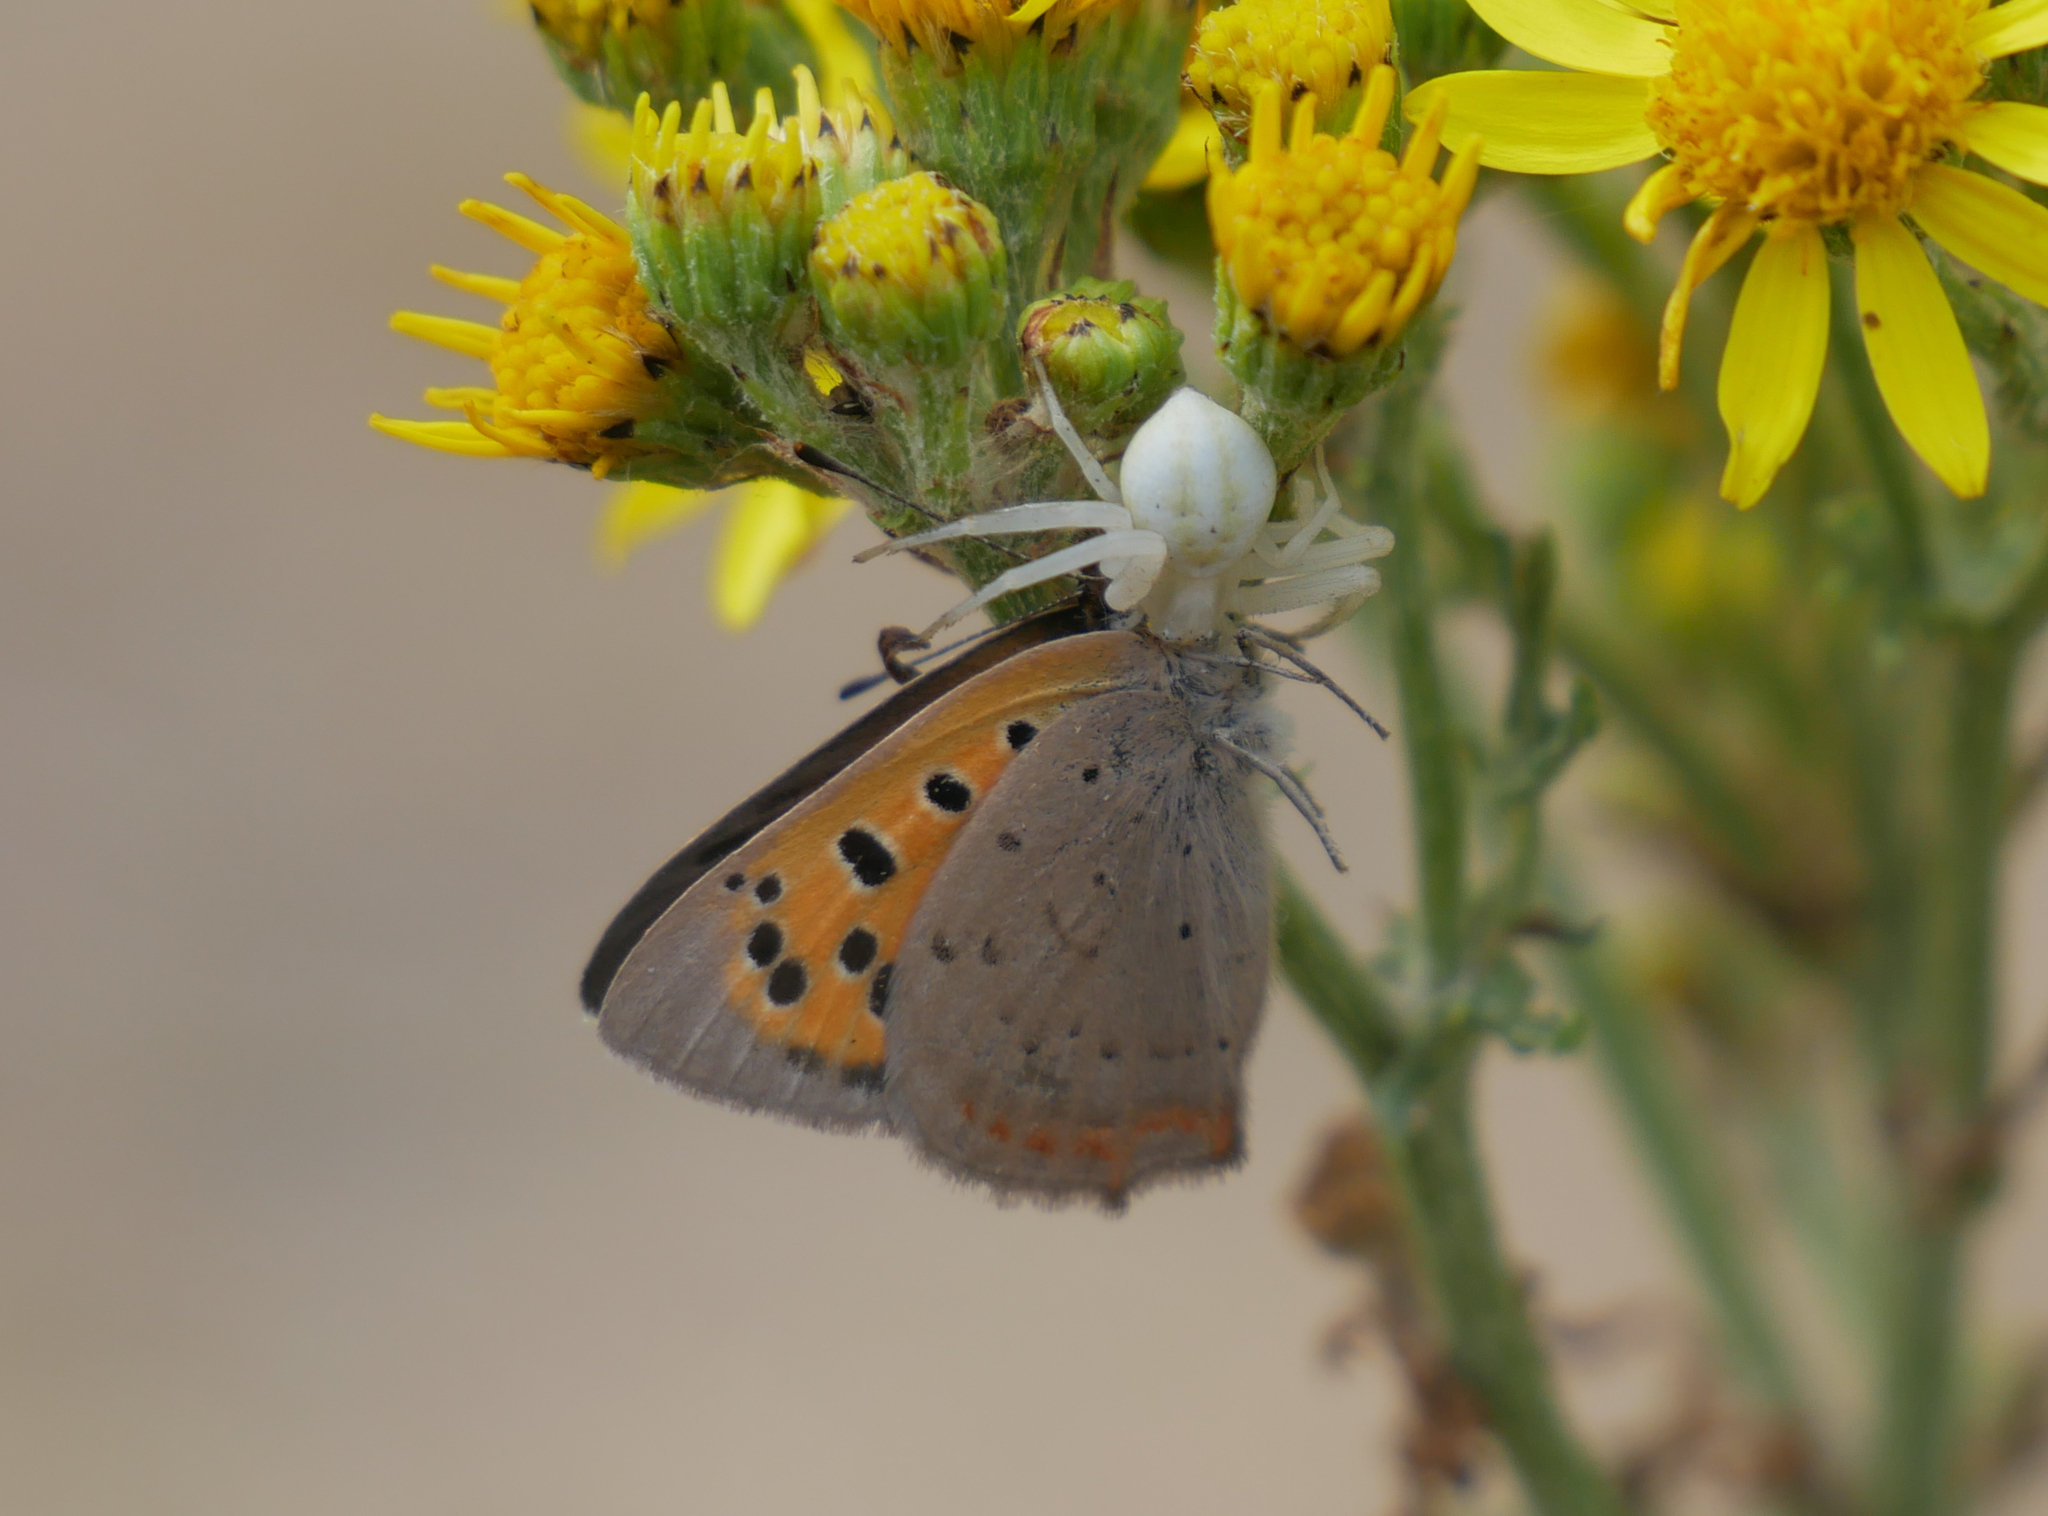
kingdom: Animalia
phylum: Arthropoda
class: Insecta
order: Lepidoptera
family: Lycaenidae
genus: Lycaena
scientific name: Lycaena phlaeas
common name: Small copper
